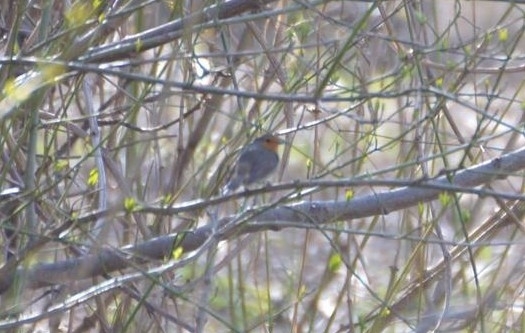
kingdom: Animalia
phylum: Chordata
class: Aves
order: Passeriformes
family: Muscicapidae
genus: Erithacus
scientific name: Erithacus rubecula
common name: European robin
